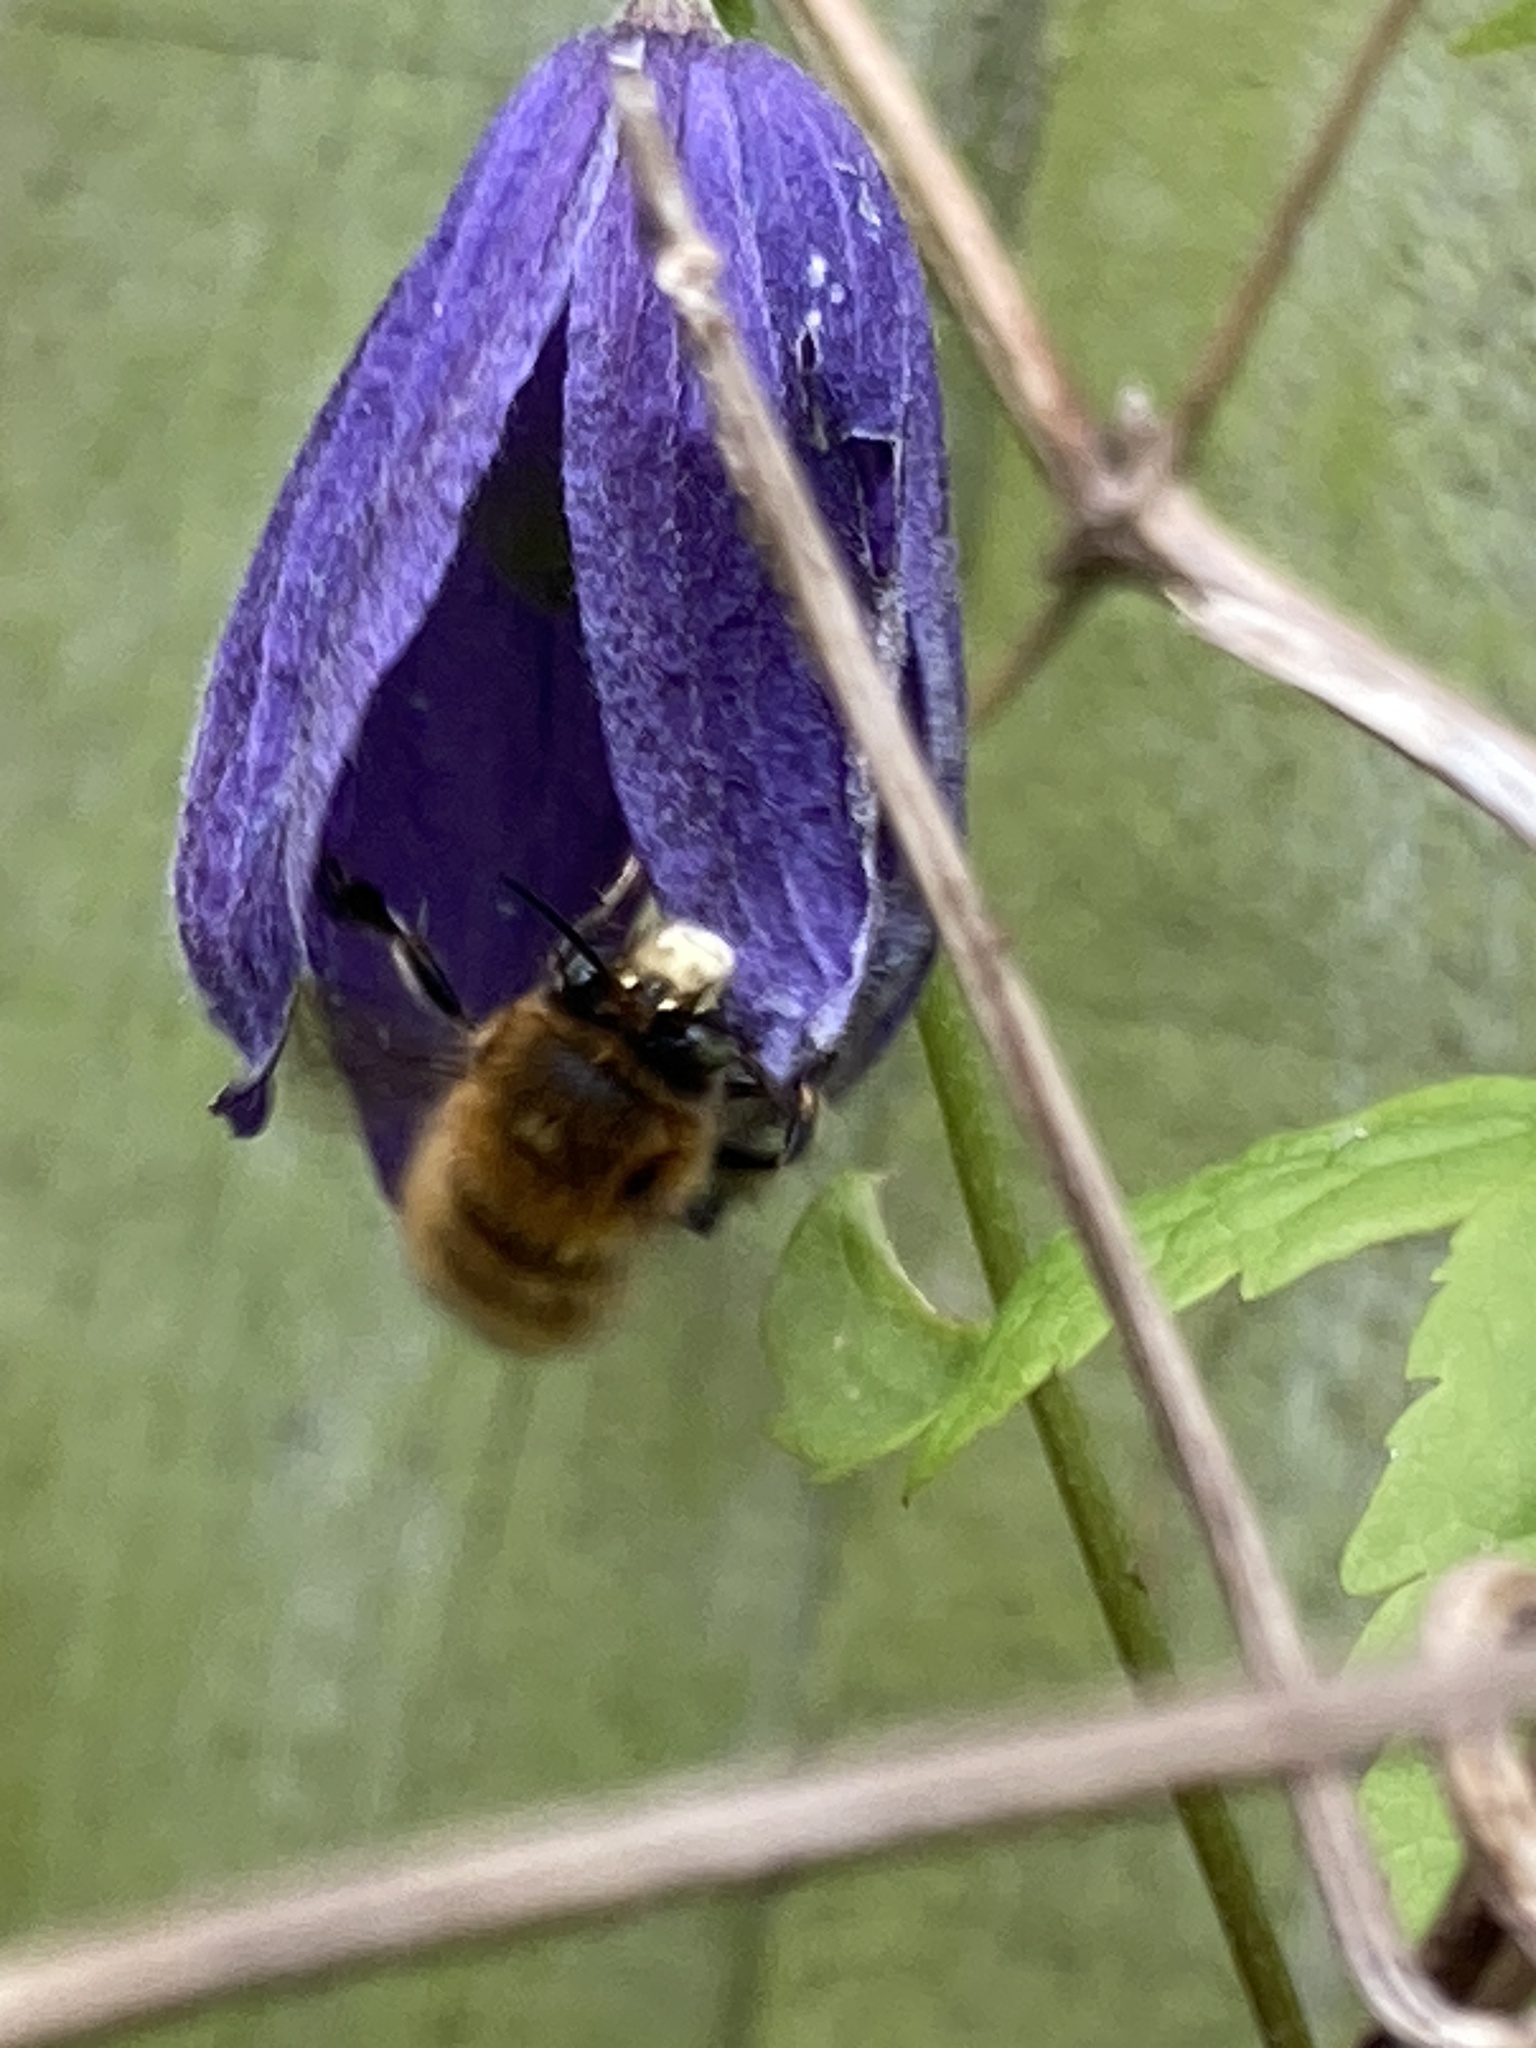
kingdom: Animalia
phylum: Arthropoda
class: Insecta
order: Hymenoptera
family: Apidae
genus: Anthophora
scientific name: Anthophora plumipes
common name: Hairy-footed flower bee
